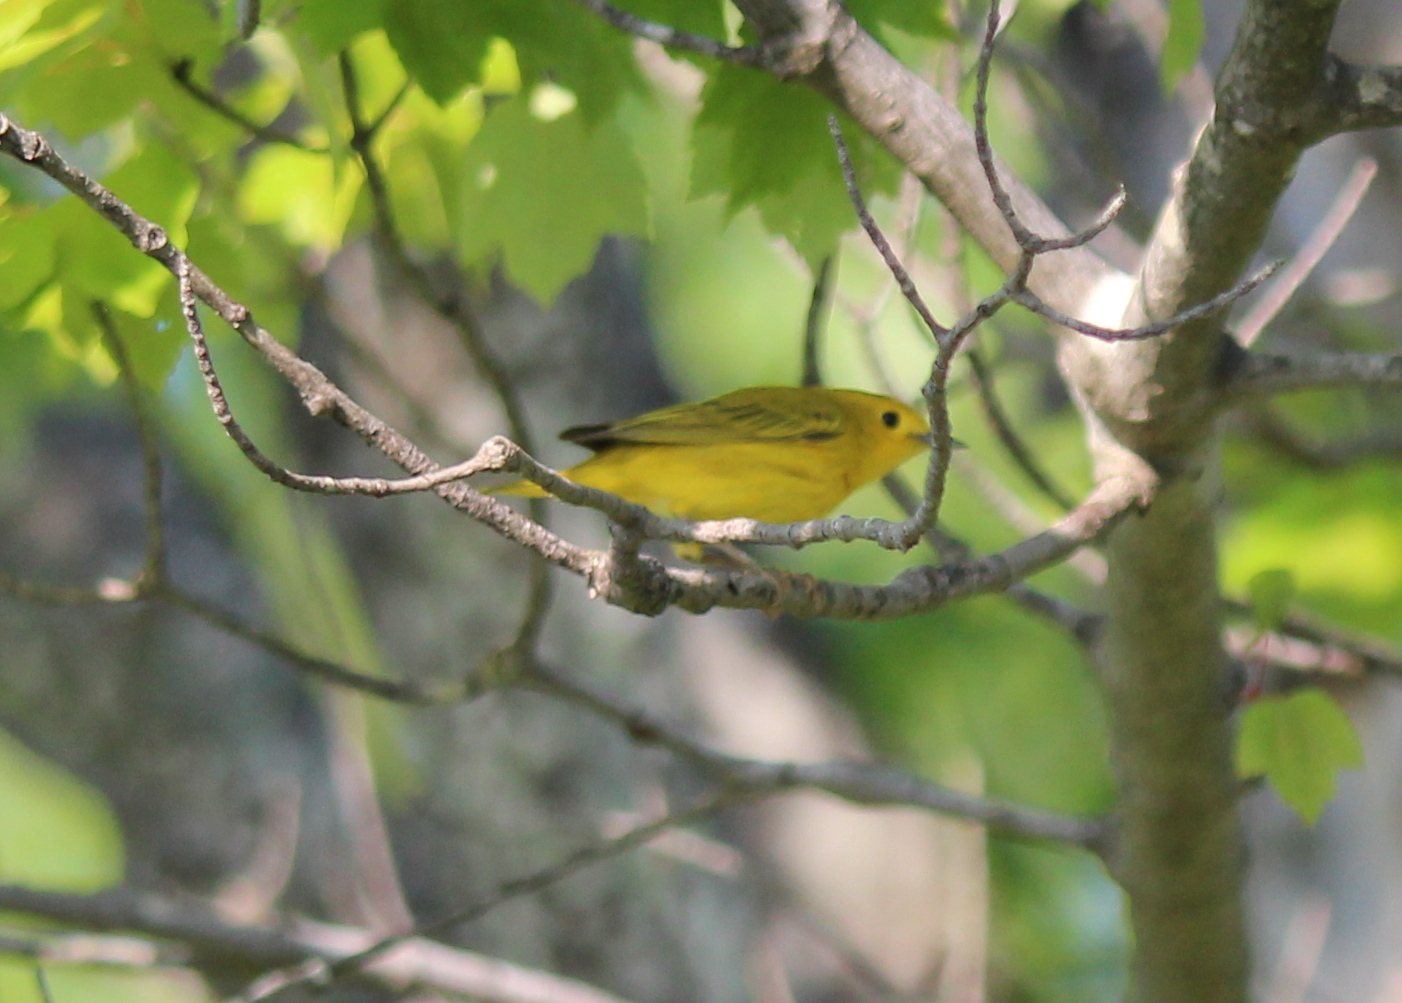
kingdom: Animalia
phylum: Chordata
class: Aves
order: Passeriformes
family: Parulidae
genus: Setophaga
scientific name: Setophaga petechia
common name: Yellow warbler
